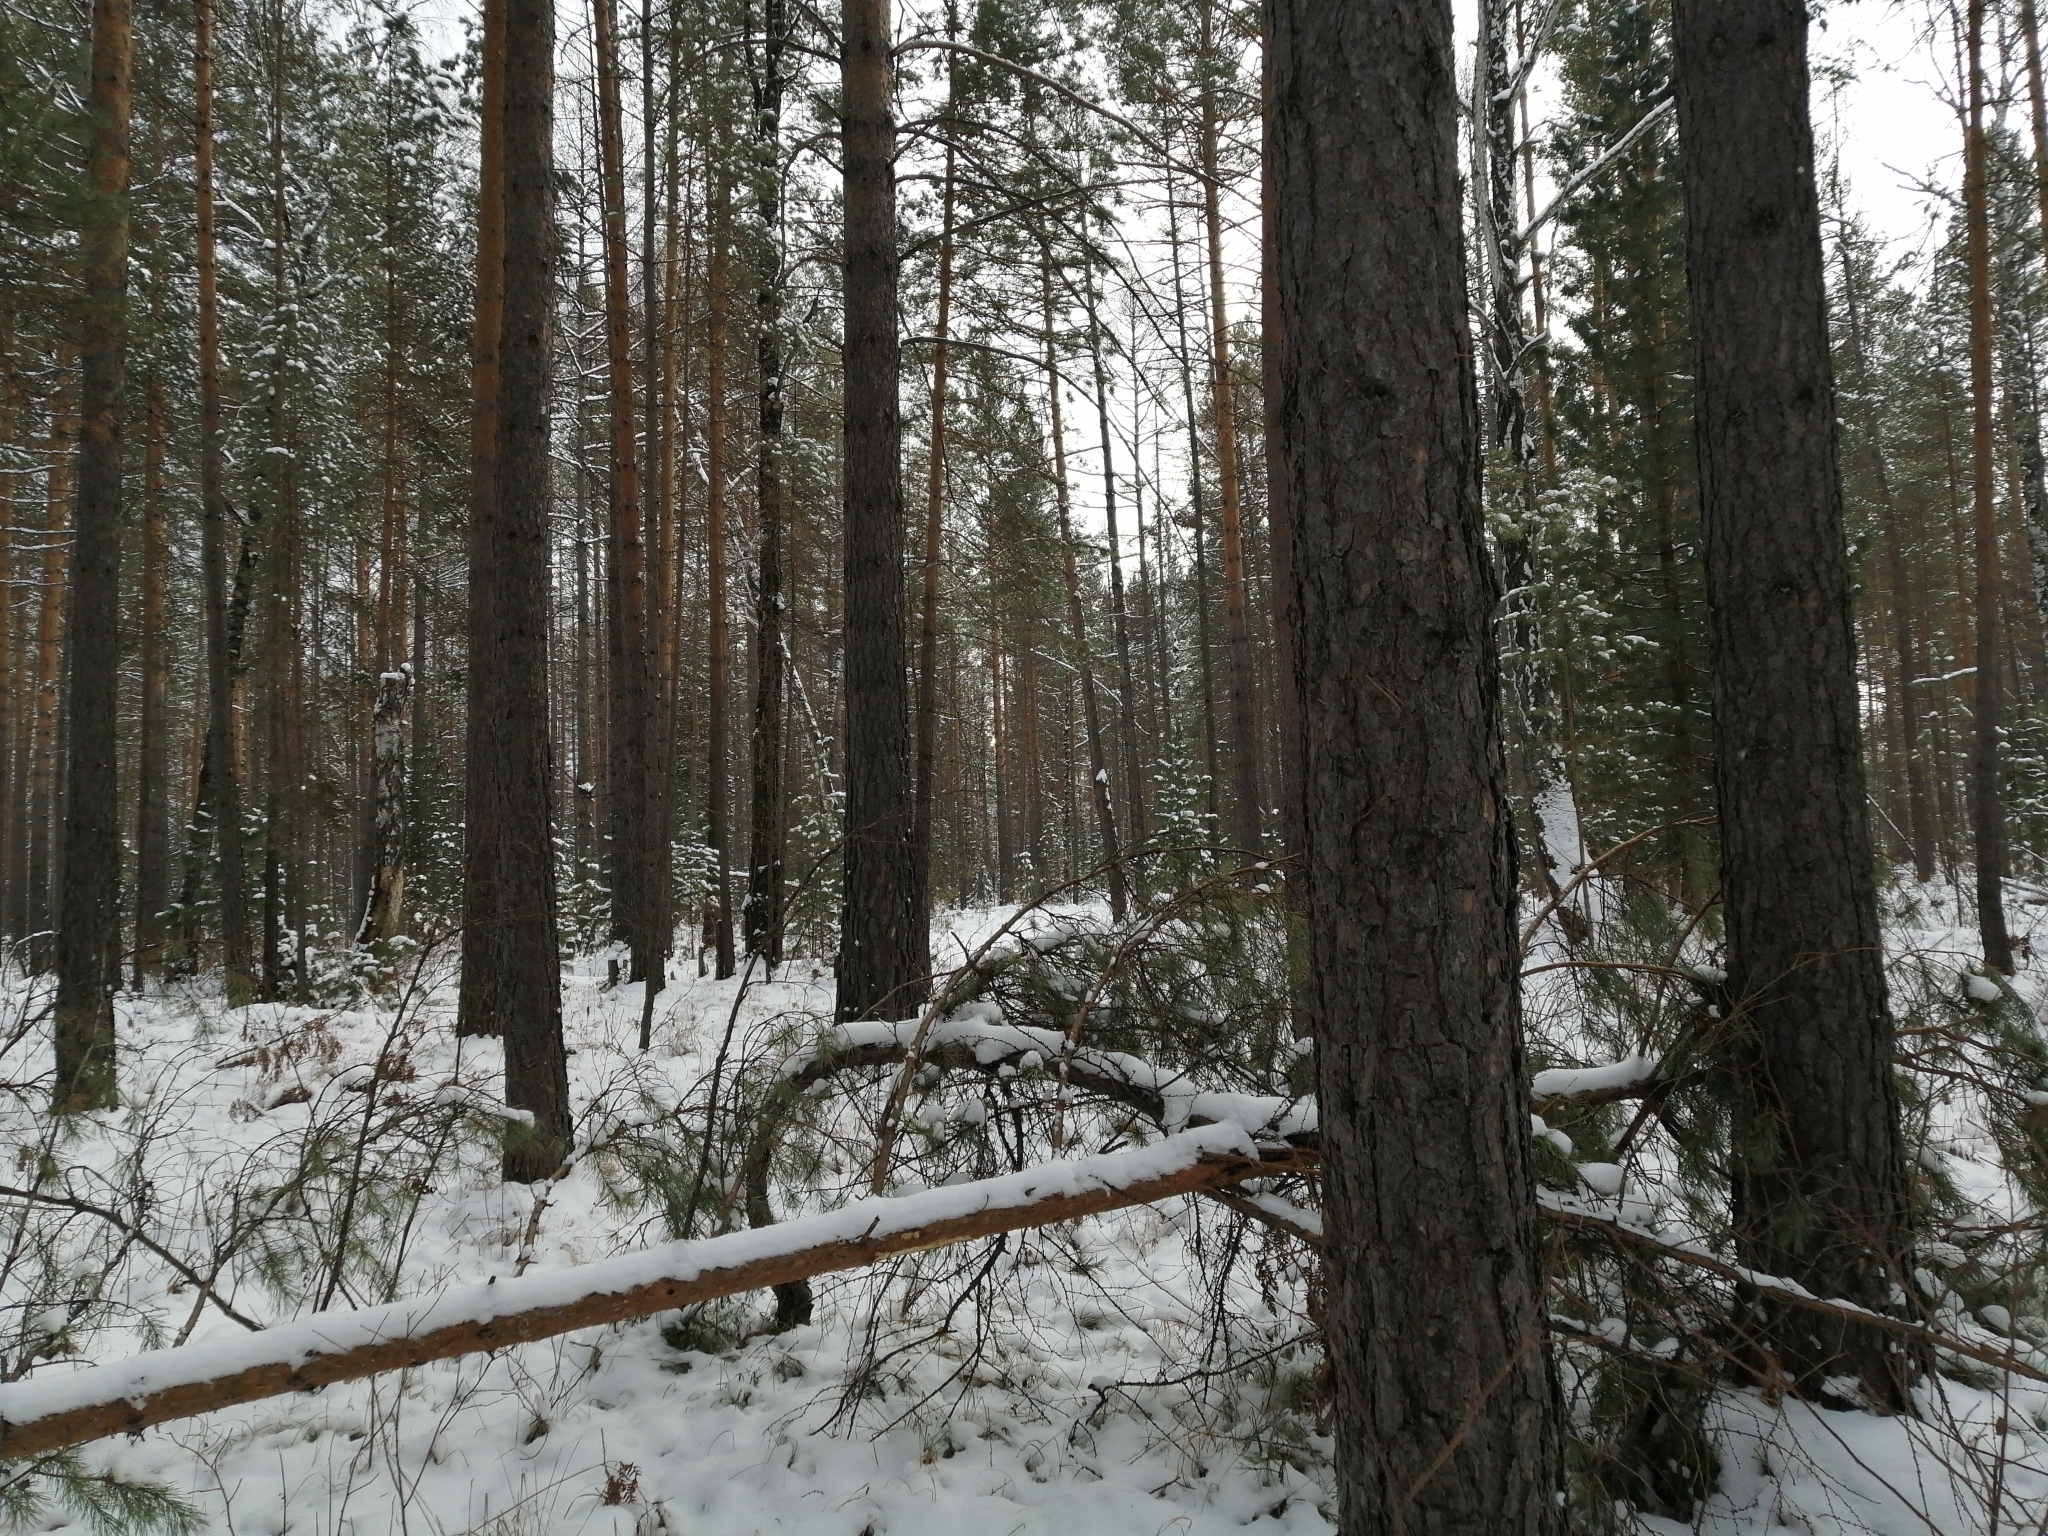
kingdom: Plantae
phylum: Tracheophyta
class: Pinopsida
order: Pinales
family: Pinaceae
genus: Pinus
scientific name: Pinus sylvestris
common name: Scots pine
